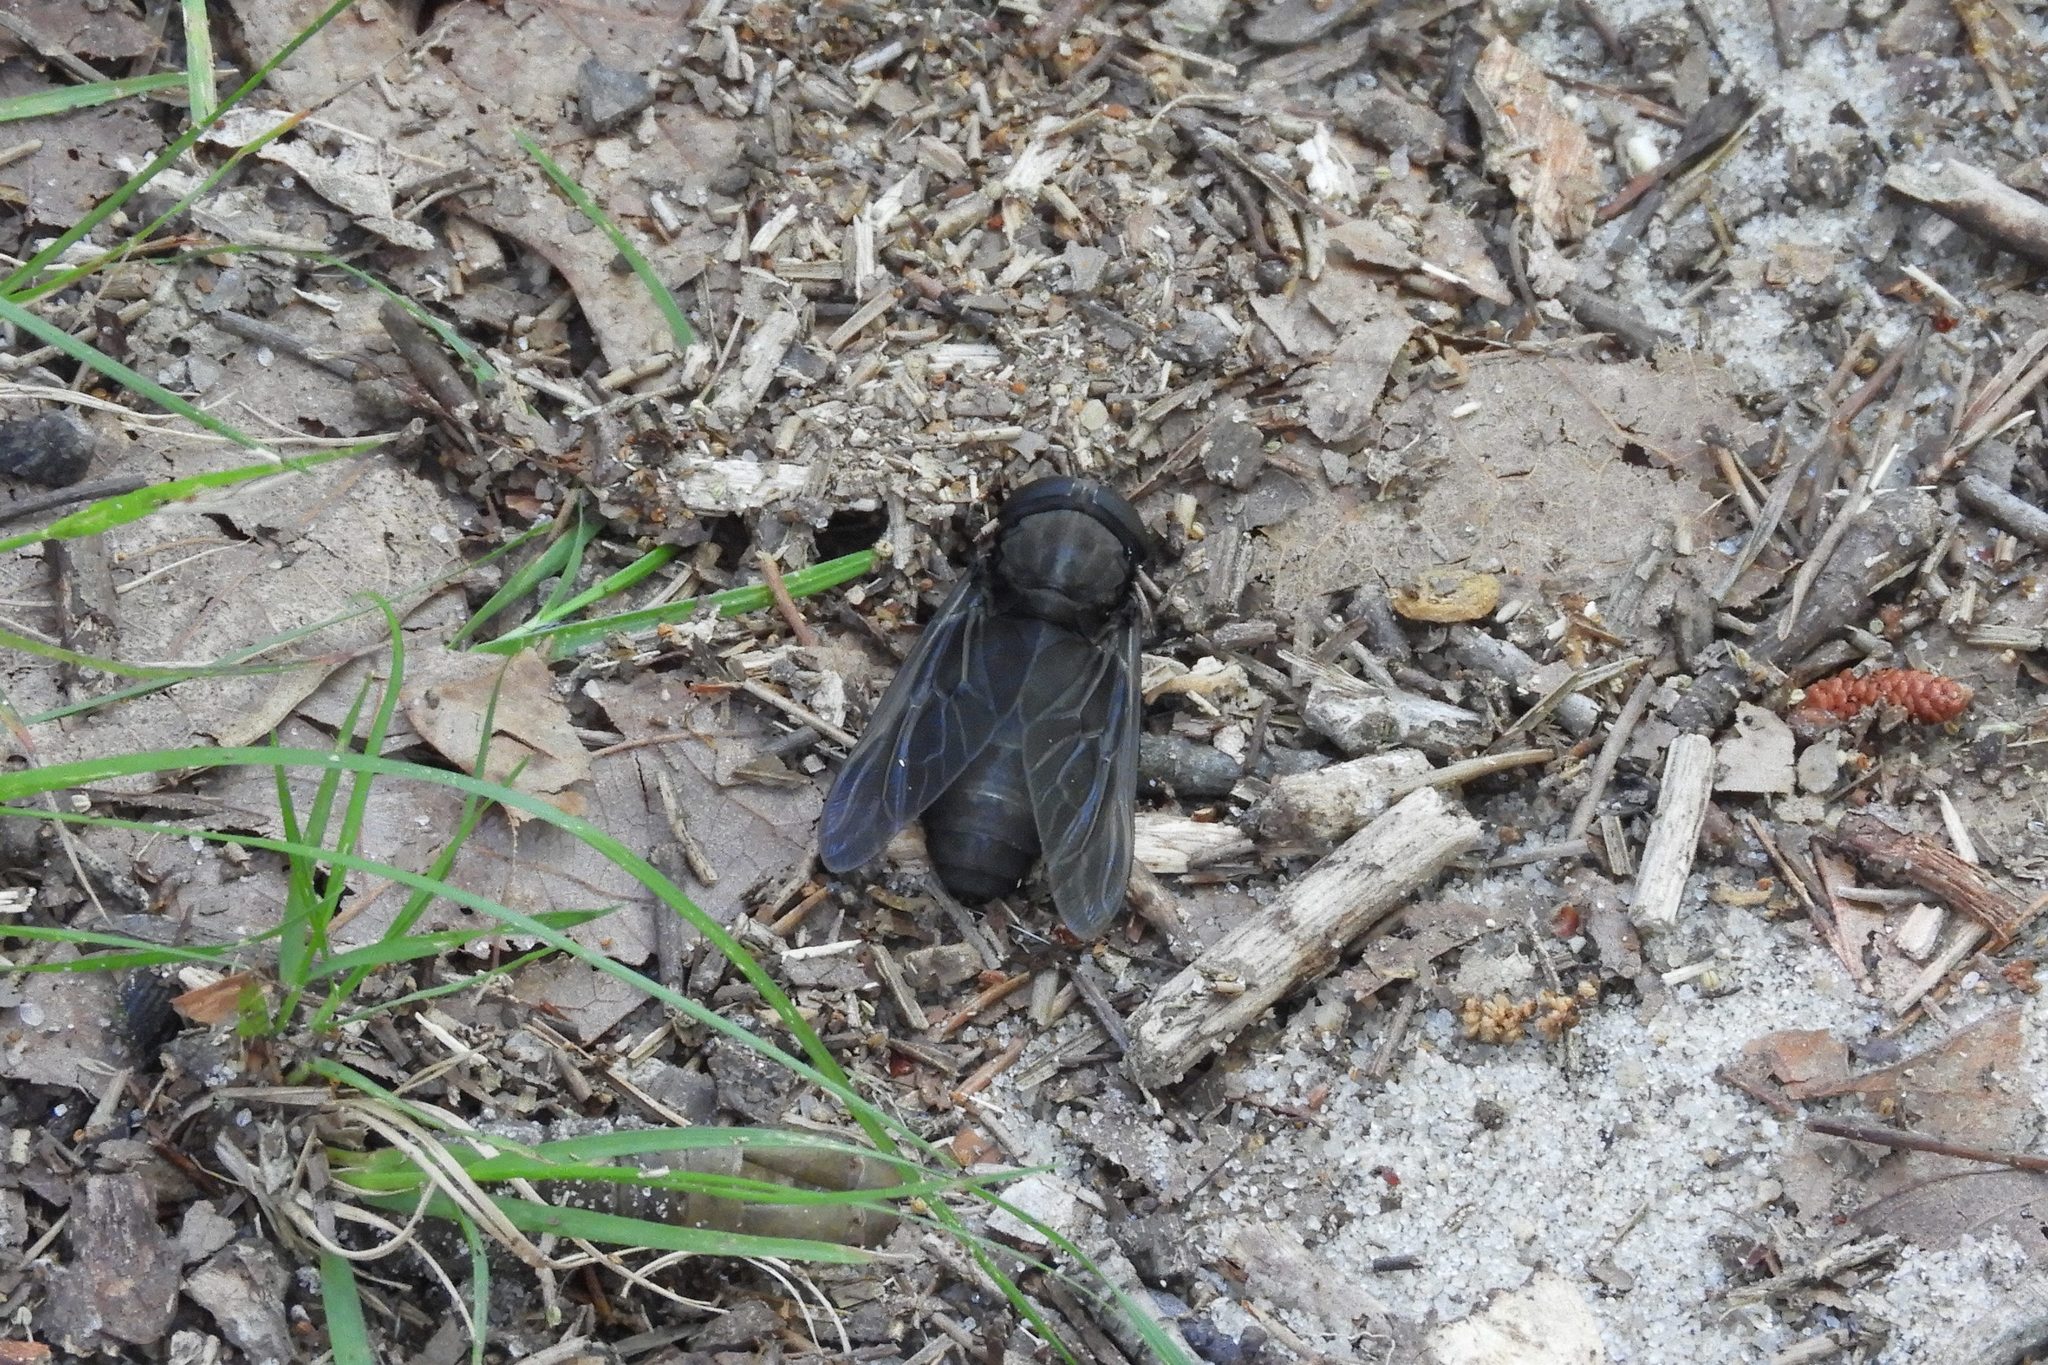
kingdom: Animalia
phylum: Arthropoda
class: Insecta
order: Diptera
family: Tabanidae
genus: Tabanus
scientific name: Tabanus atratus
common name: Black horse fly
